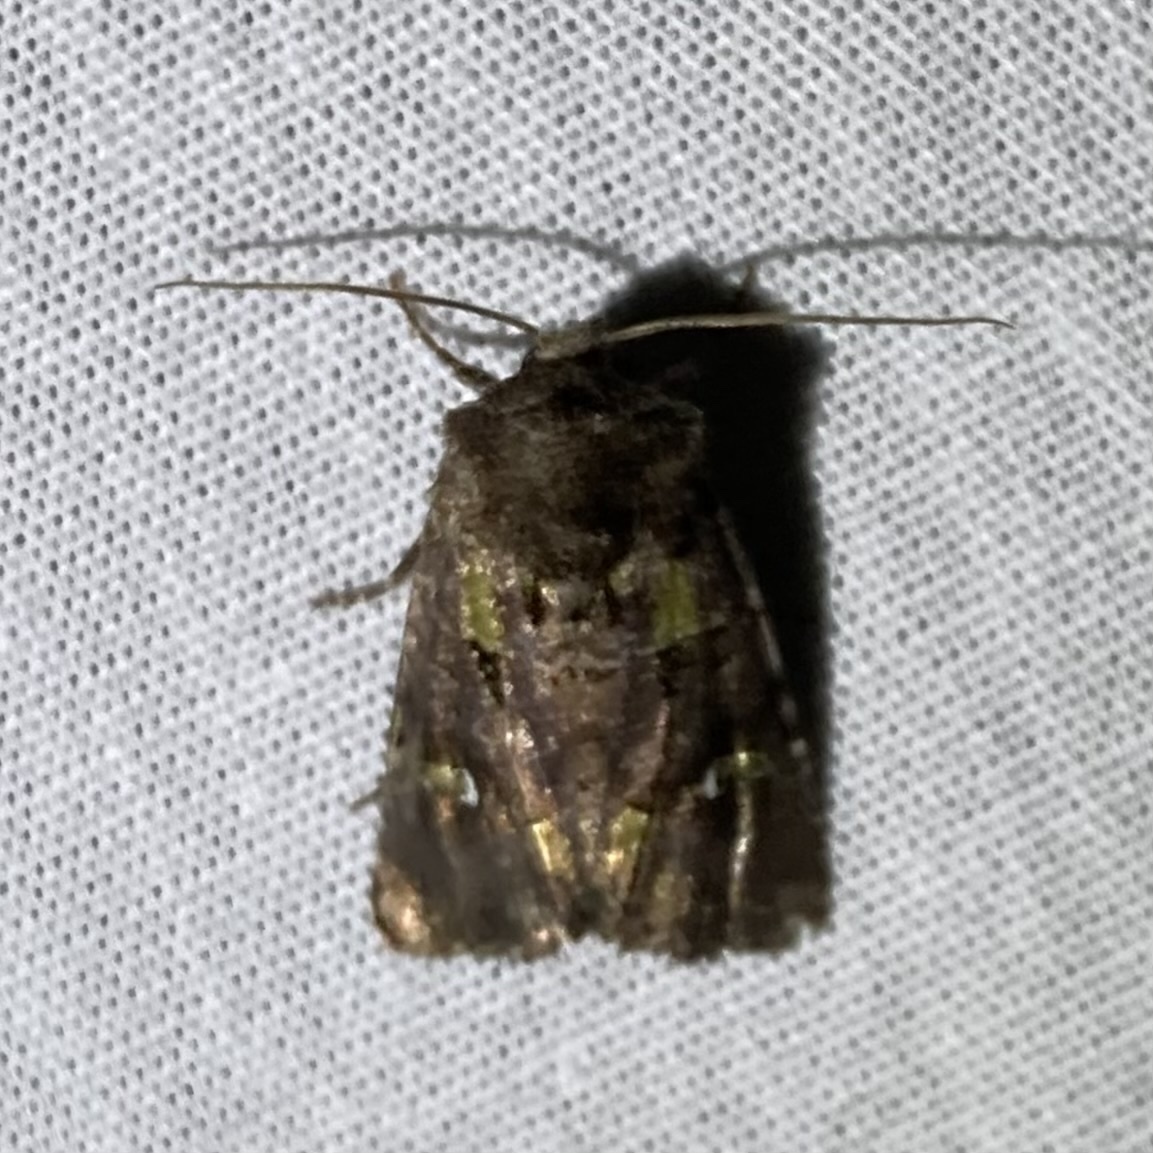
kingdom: Animalia
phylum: Arthropoda
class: Insecta
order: Lepidoptera
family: Noctuidae
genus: Lacinipolia
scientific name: Lacinipolia renigera
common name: Kidney-spotted minor
